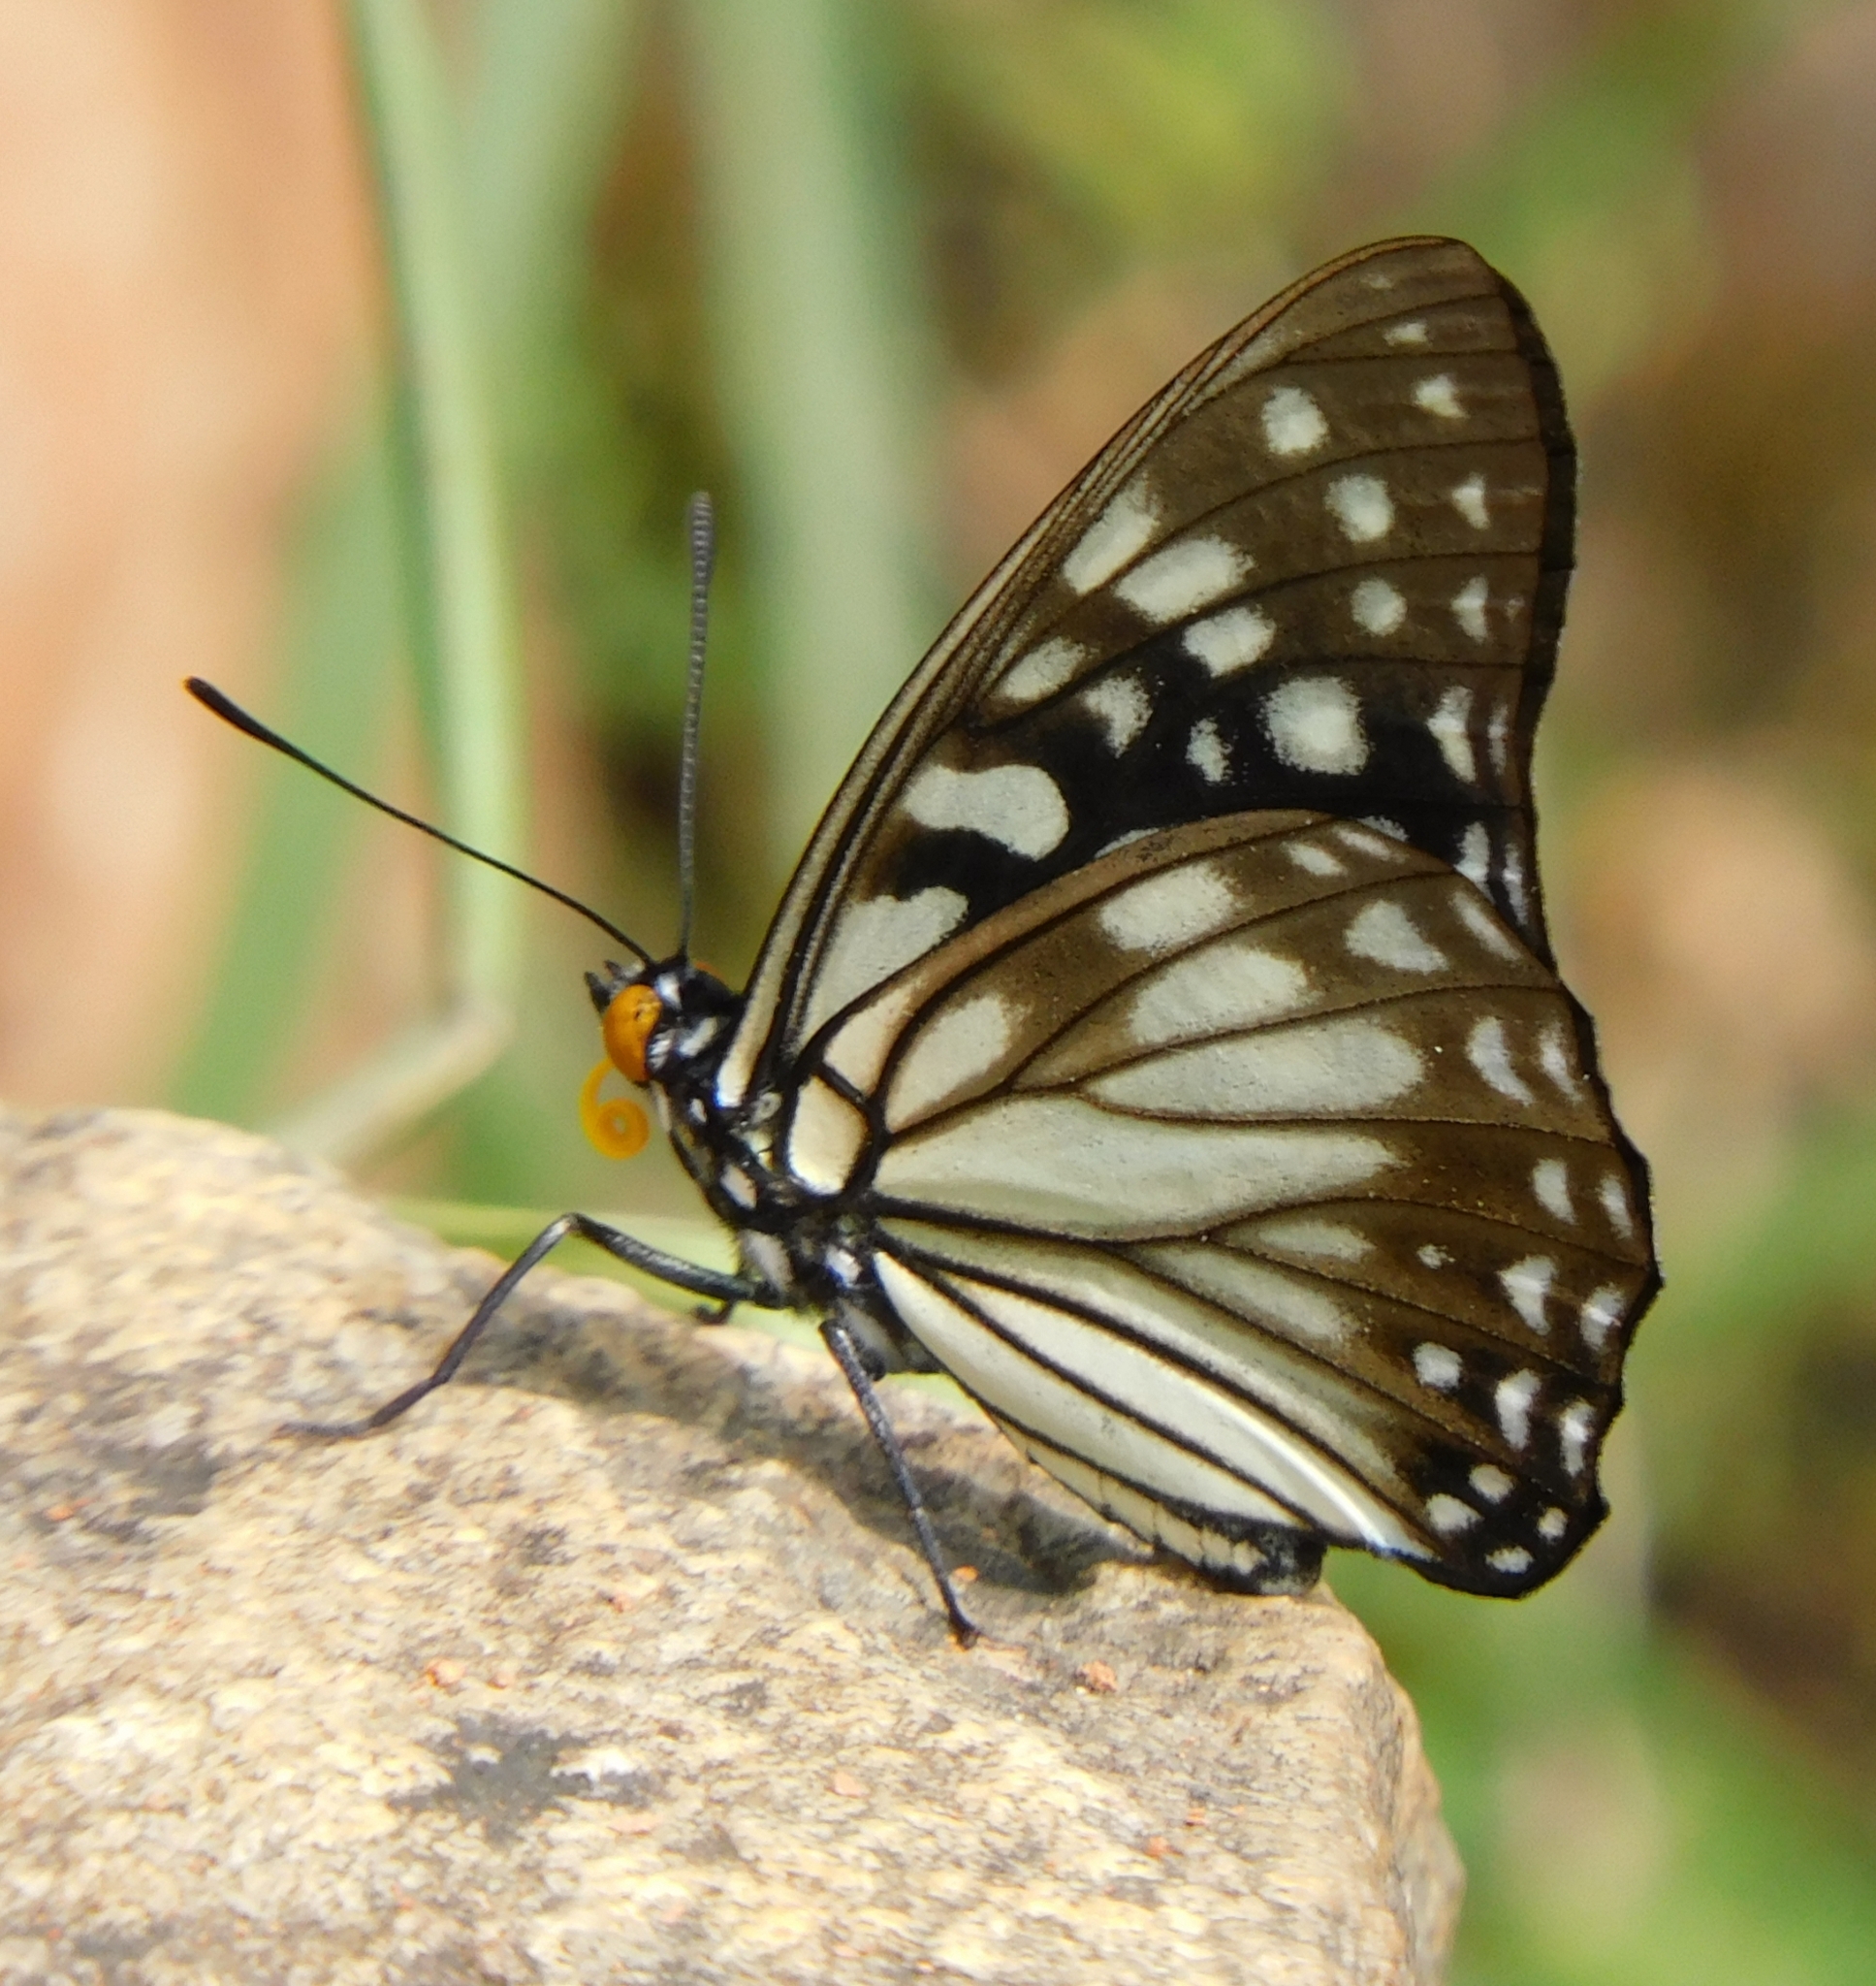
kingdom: Animalia
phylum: Arthropoda
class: Insecta
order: Lepidoptera
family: Nymphalidae
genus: Hestina
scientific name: Hestina persimilis
